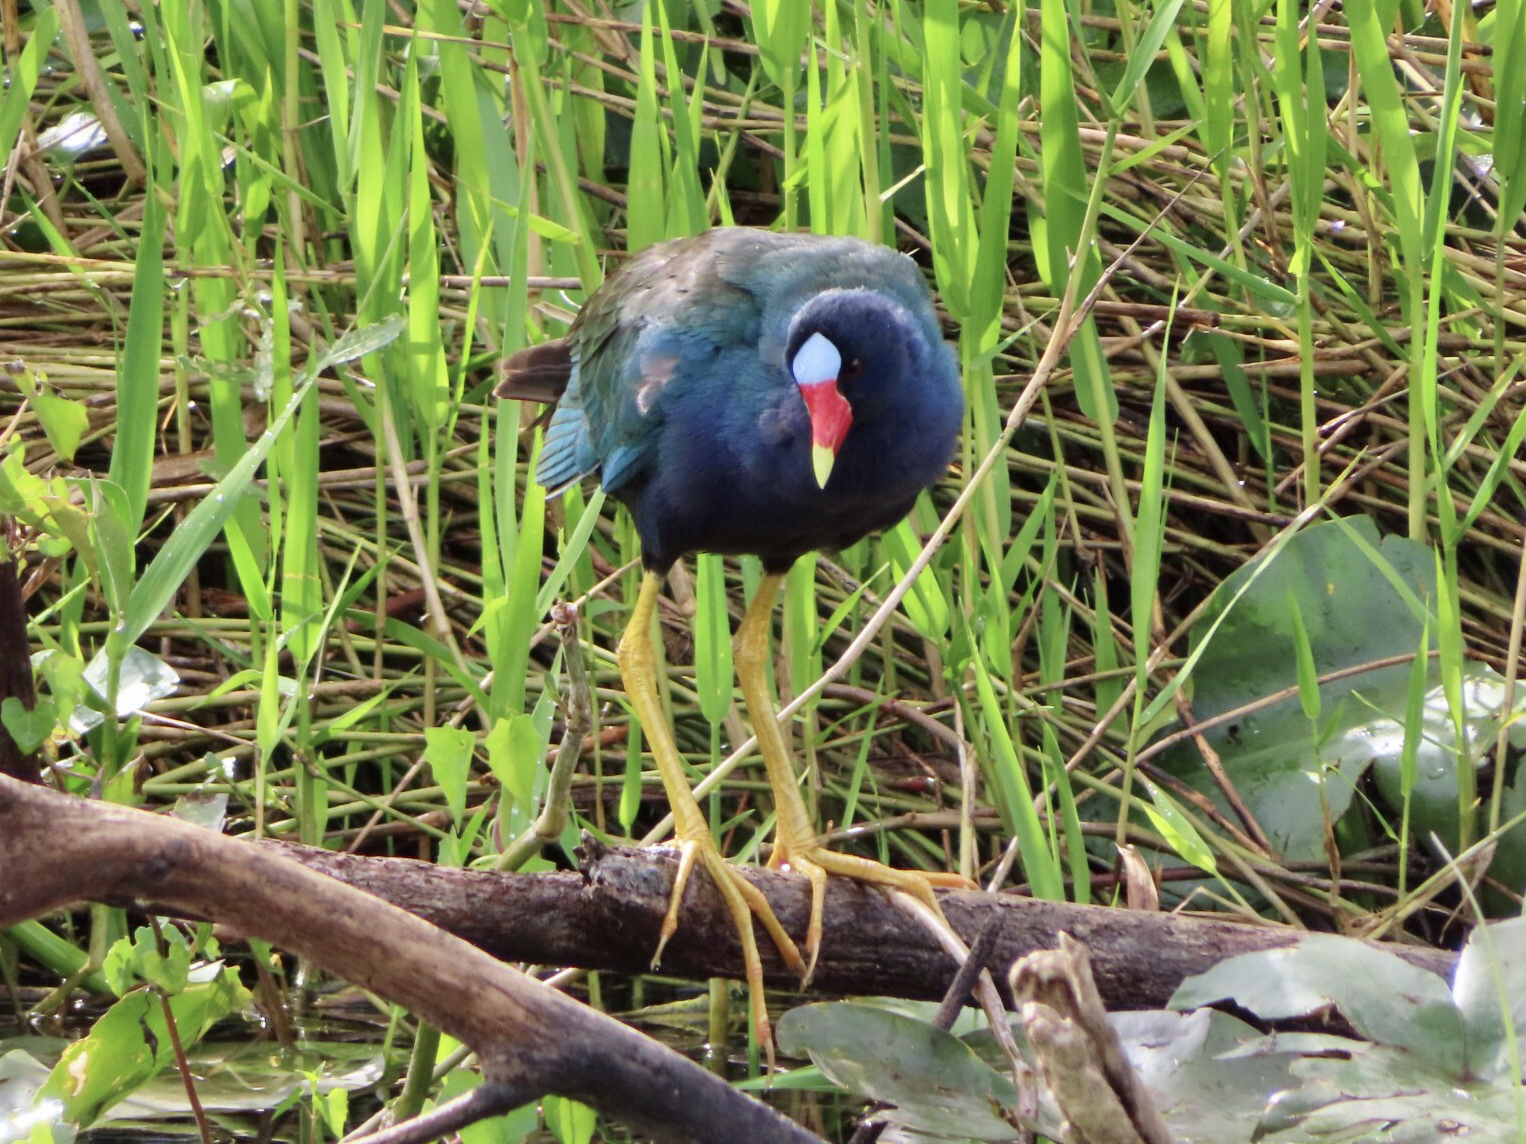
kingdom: Animalia
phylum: Chordata
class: Aves
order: Gruiformes
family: Rallidae
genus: Porphyrio
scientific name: Porphyrio martinica
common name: Purple gallinule
